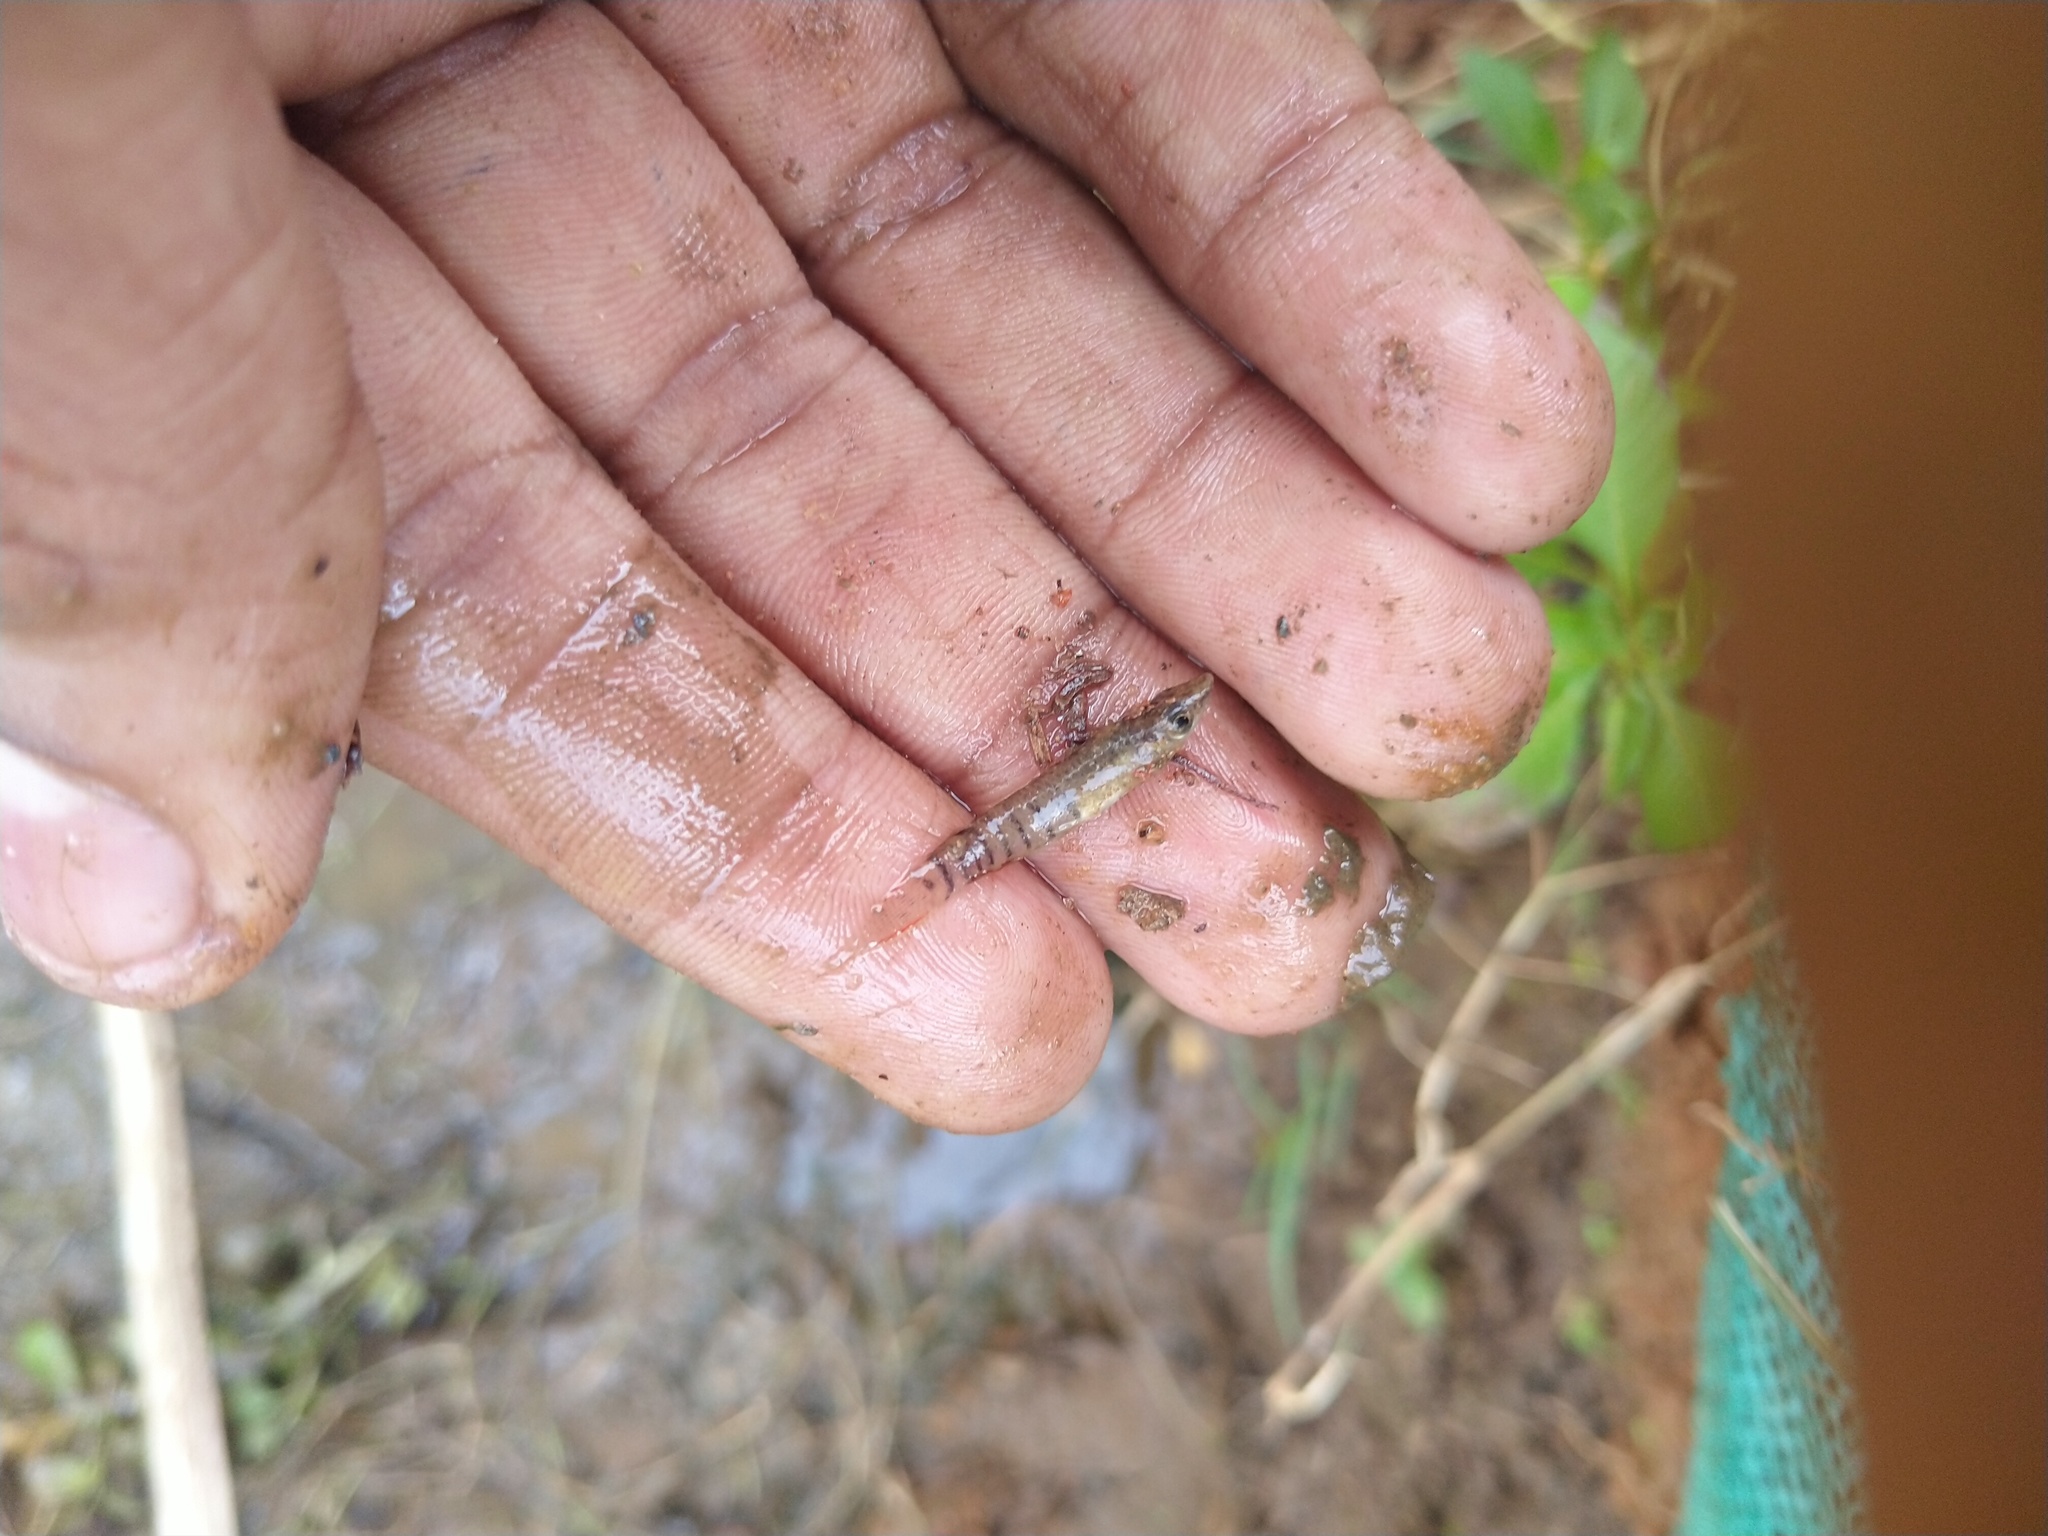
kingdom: Animalia
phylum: Chordata
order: Cyprinodontiformes
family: Aplocheilidae
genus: Aplocheilus
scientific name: Aplocheilus lineatus
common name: Striped panchax
